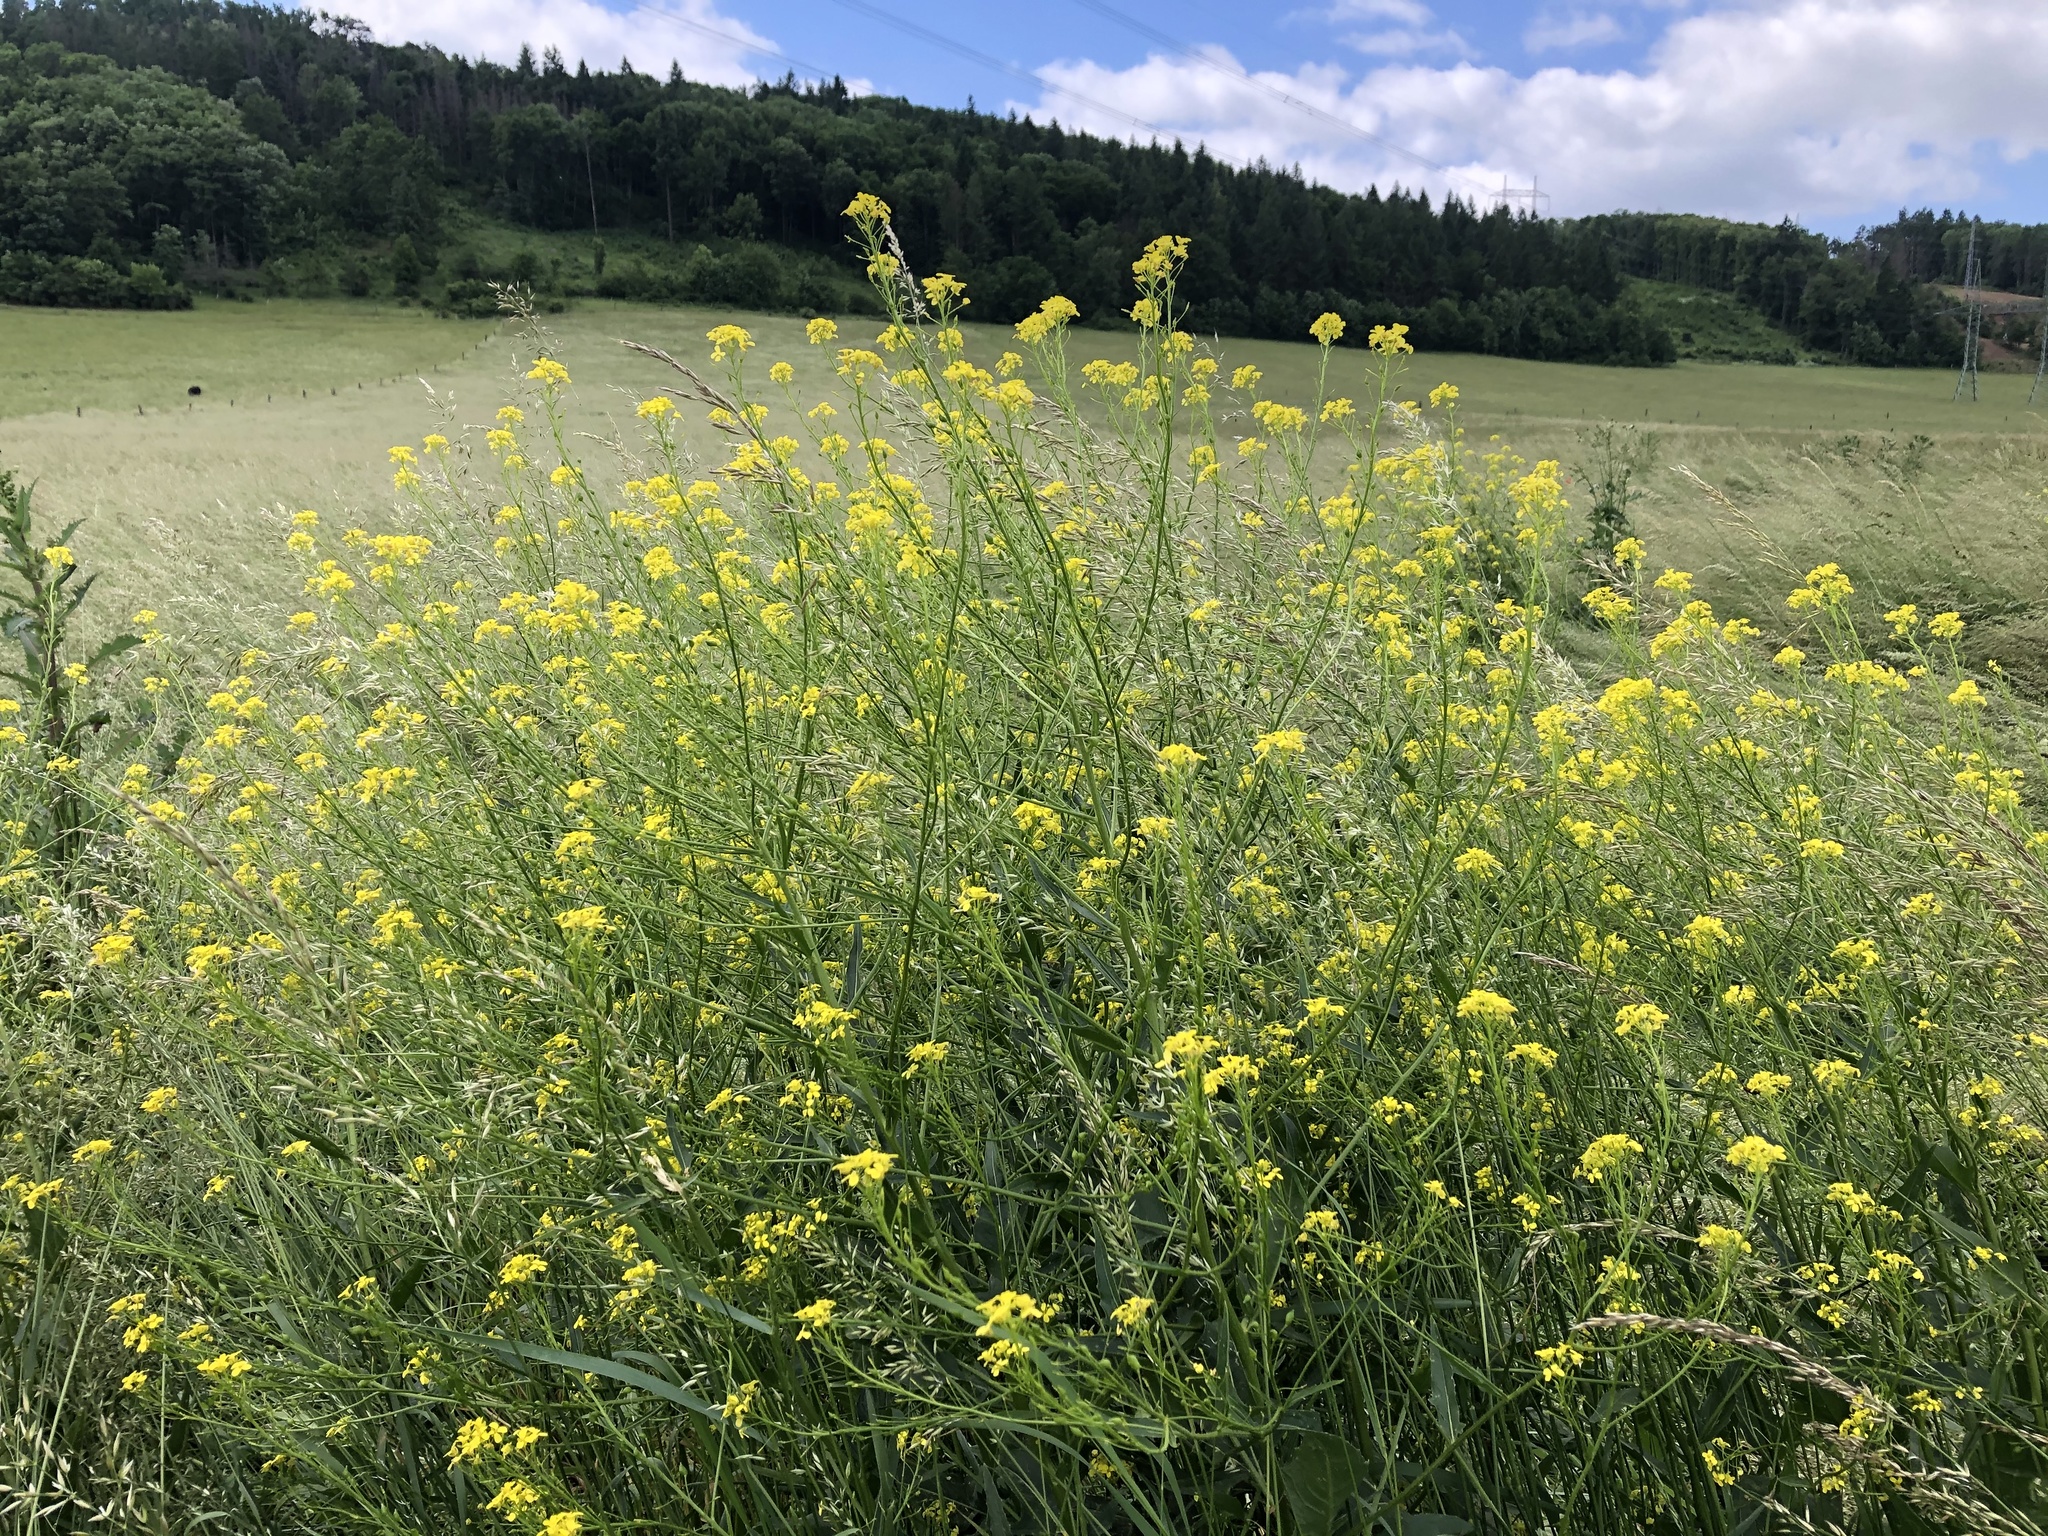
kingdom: Plantae
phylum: Tracheophyta
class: Magnoliopsida
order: Brassicales
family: Brassicaceae
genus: Bunias
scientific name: Bunias orientalis
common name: Warty-cabbage
